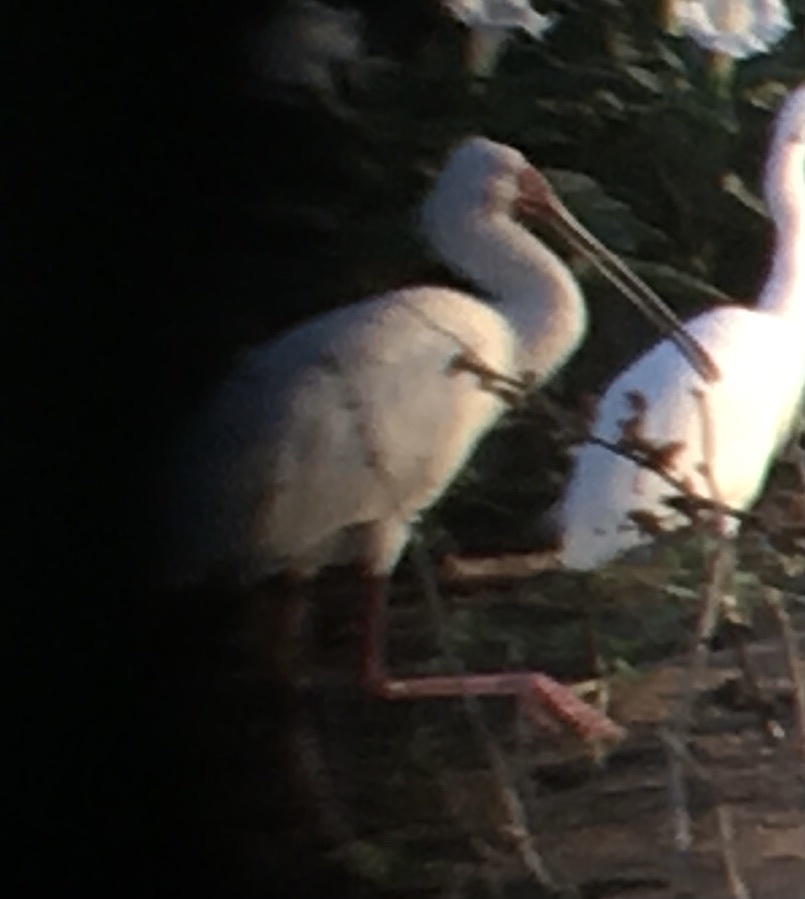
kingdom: Animalia
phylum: Chordata
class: Aves
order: Pelecaniformes
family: Threskiornithidae
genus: Platalea
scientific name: Platalea alba
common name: African spoonbill
